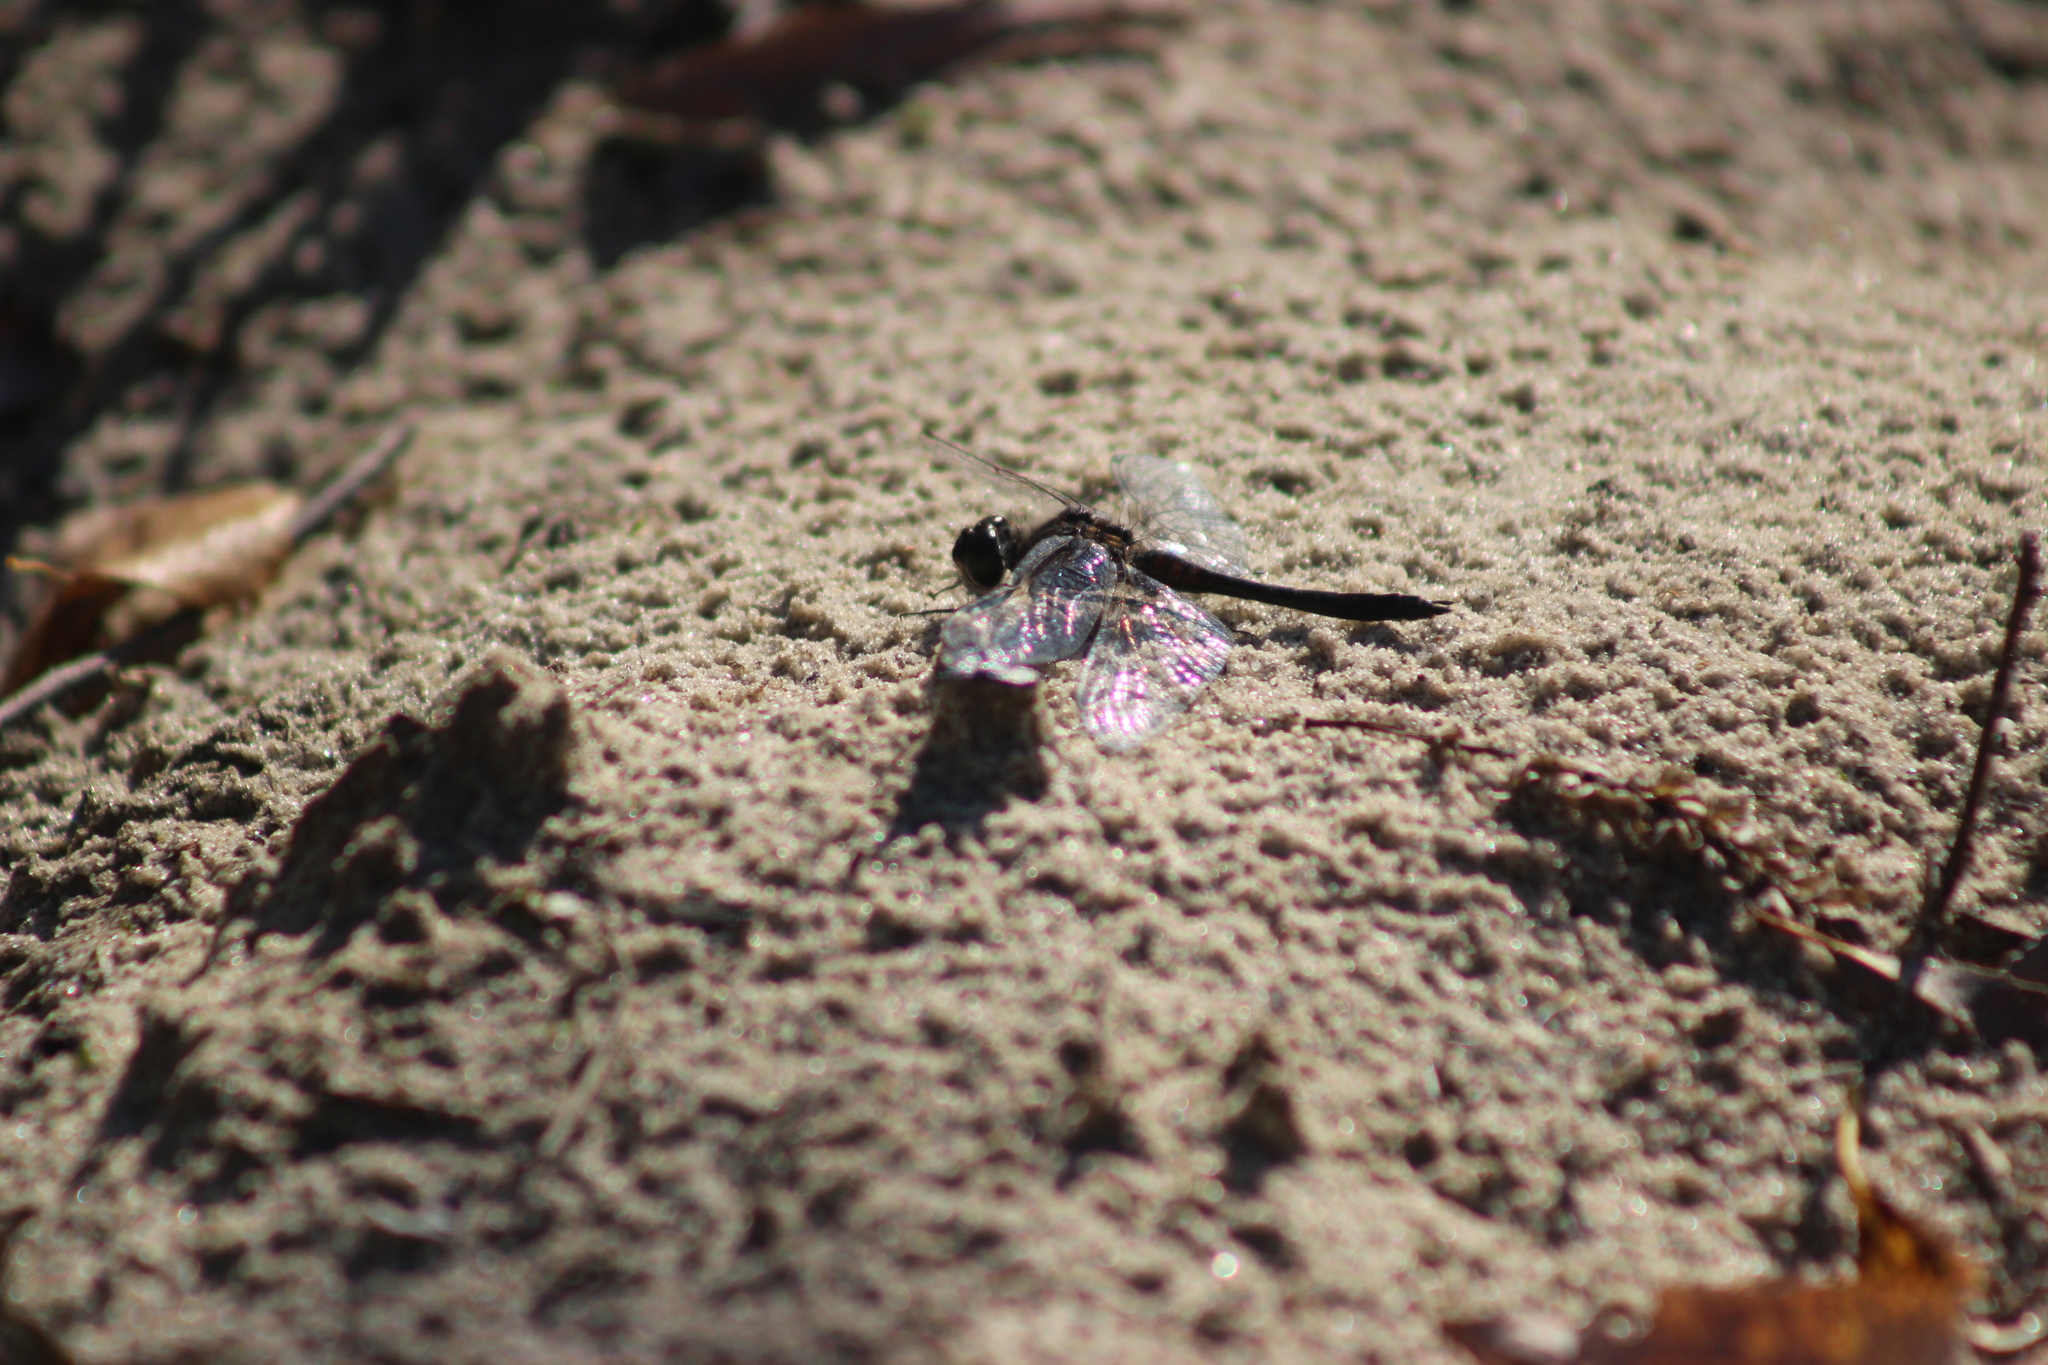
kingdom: Animalia
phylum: Arthropoda
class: Insecta
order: Odonata
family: Libellulidae
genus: Sympetrum
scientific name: Sympetrum danae
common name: Black darter
